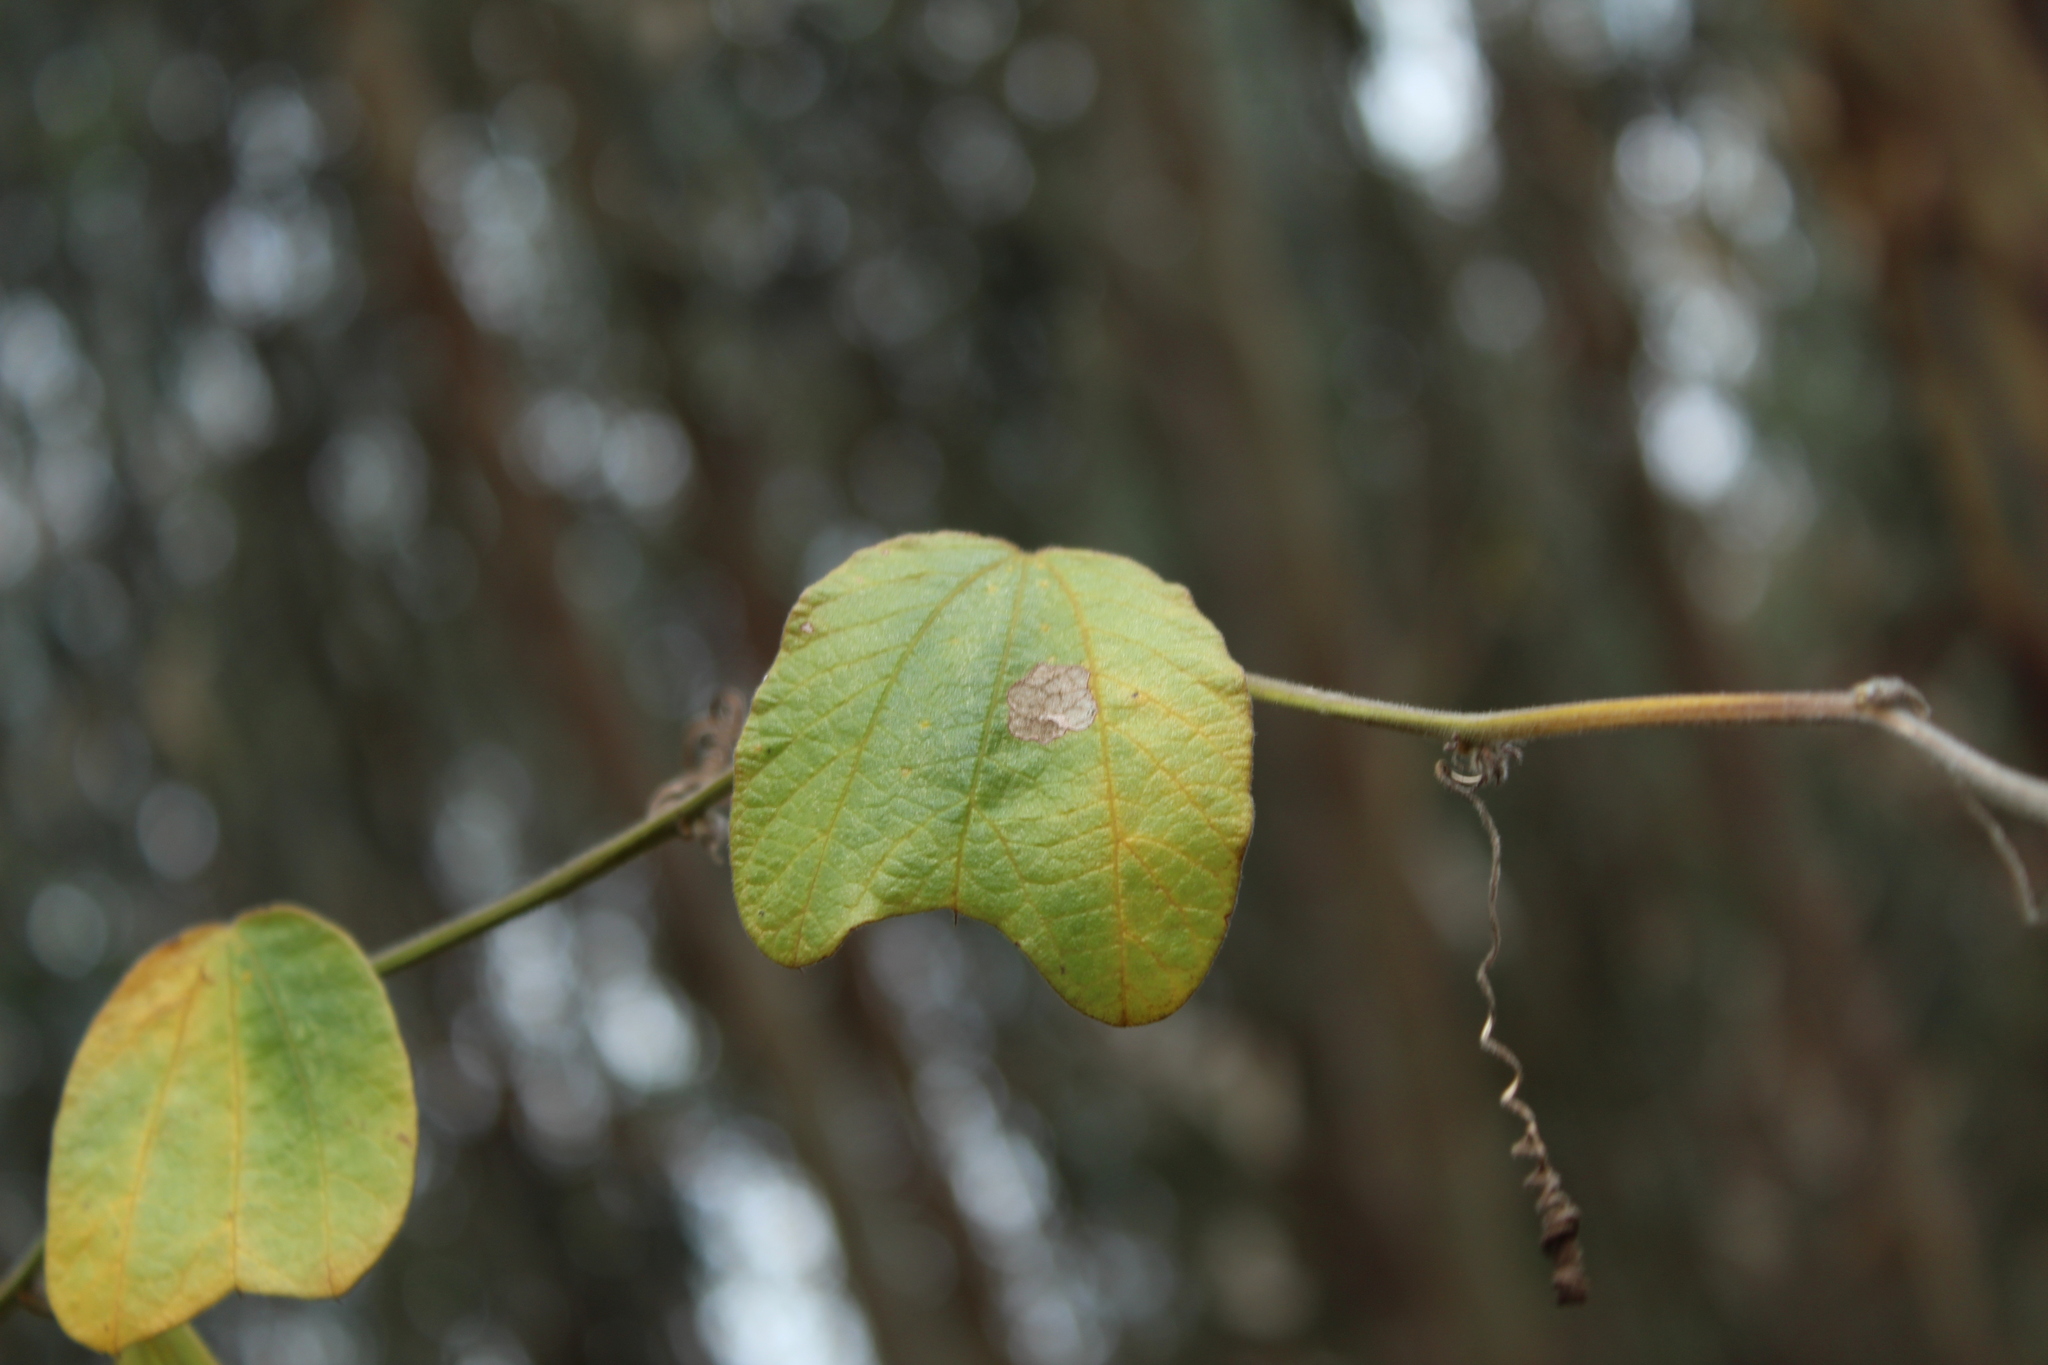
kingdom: Plantae
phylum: Tracheophyta
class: Magnoliopsida
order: Malpighiales
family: Passifloraceae
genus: Passiflora
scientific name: Passiflora bogotensis
